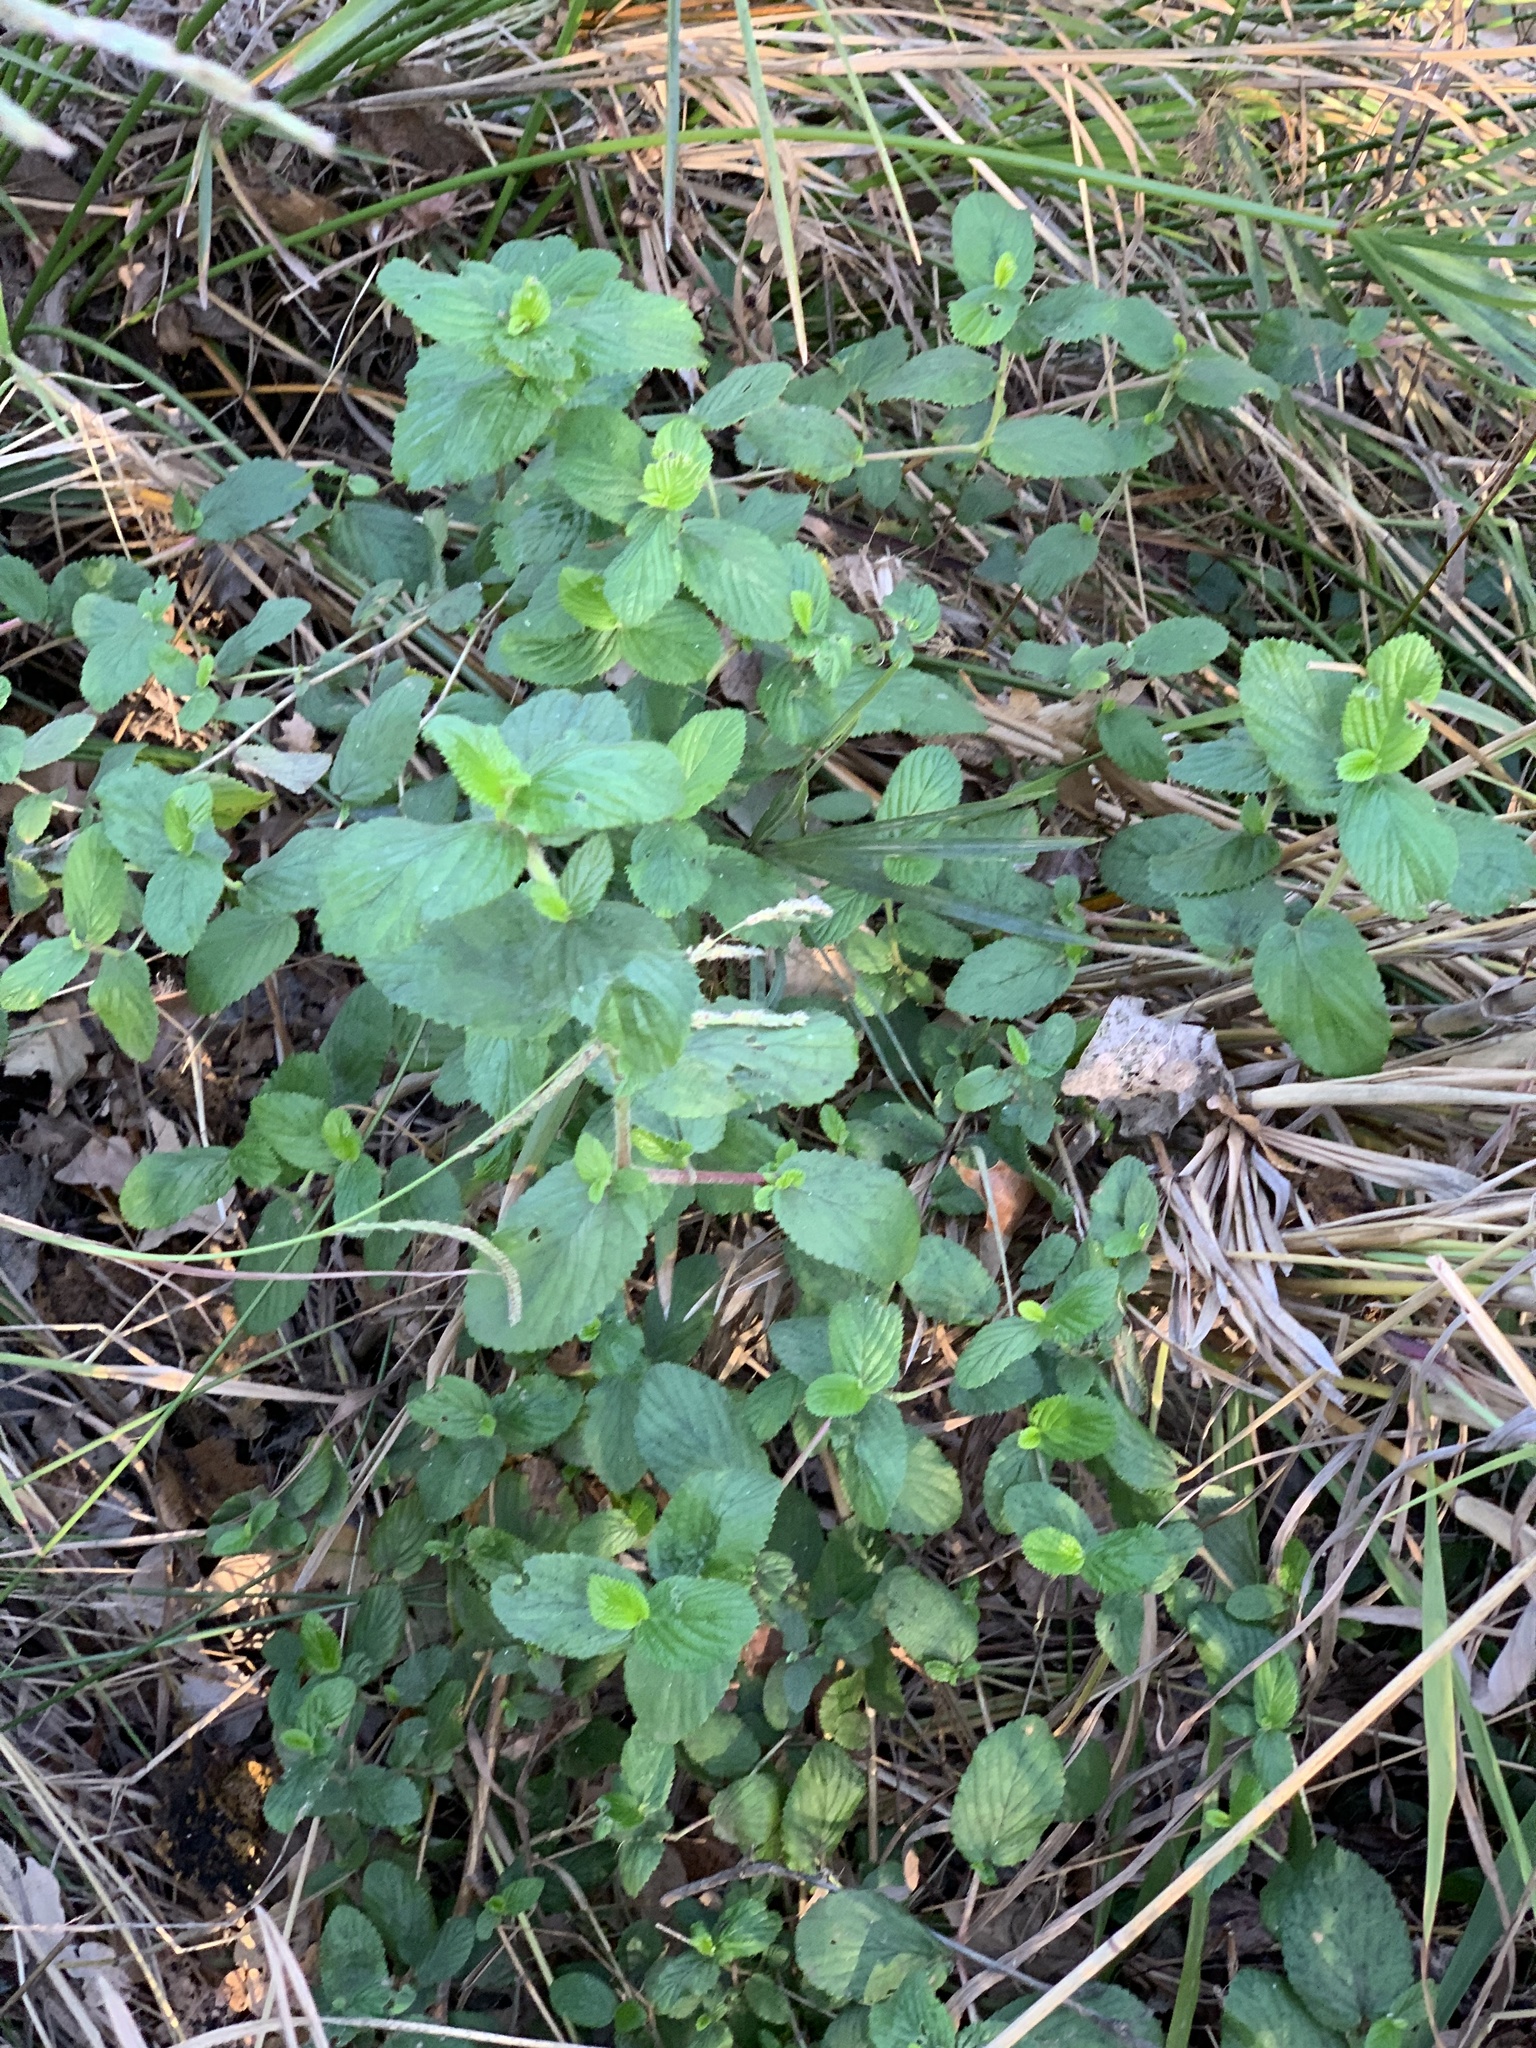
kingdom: Plantae
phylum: Tracheophyta
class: Magnoliopsida
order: Rosales
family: Rosaceae
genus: Cliffortia
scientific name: Cliffortia odorata
